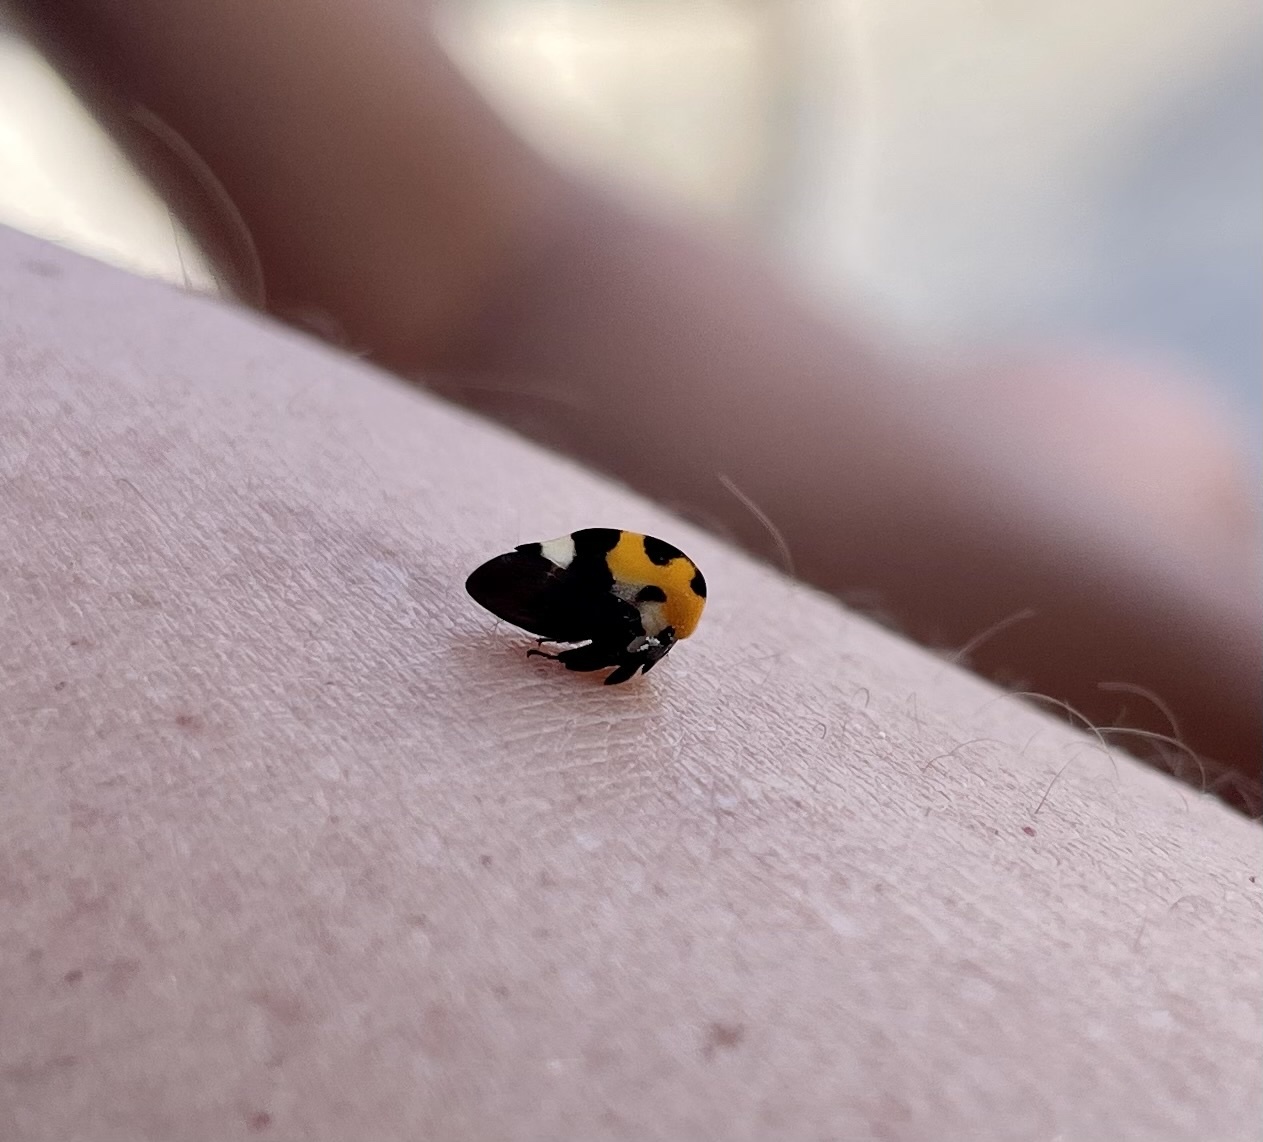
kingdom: Animalia
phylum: Arthropoda
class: Insecta
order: Hemiptera
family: Membracidae
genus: Membracis
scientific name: Membracis mexicana
